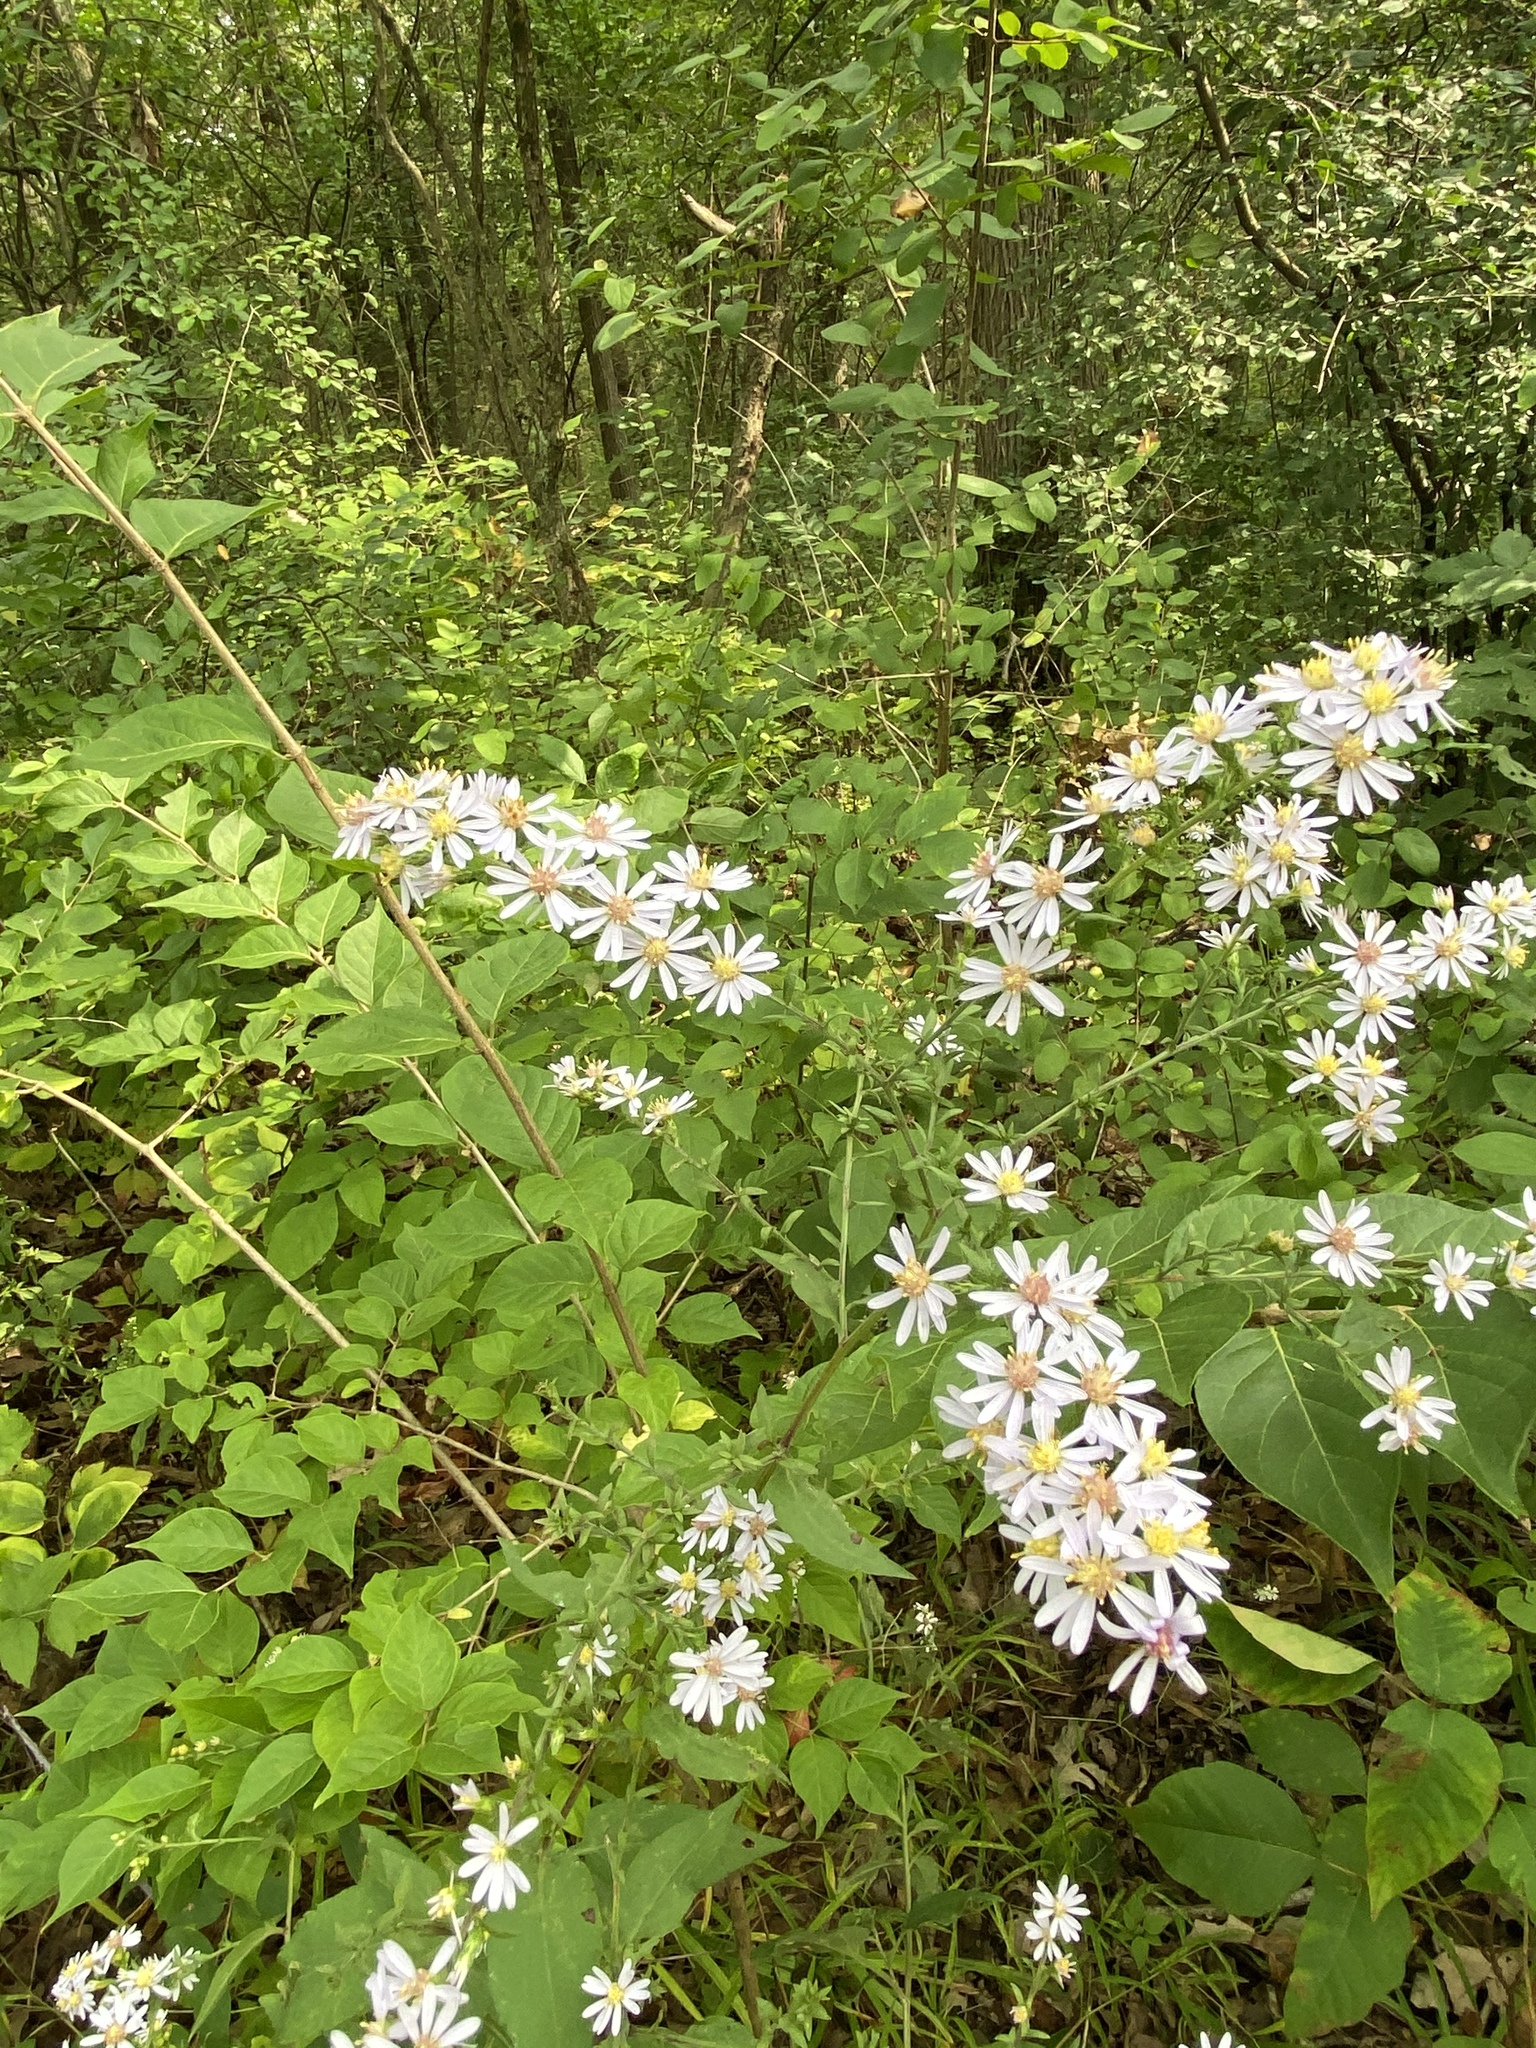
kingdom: Plantae
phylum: Tracheophyta
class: Magnoliopsida
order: Asterales
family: Asteraceae
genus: Symphyotrichum
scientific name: Symphyotrichum drummondii
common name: Drummond's aster
